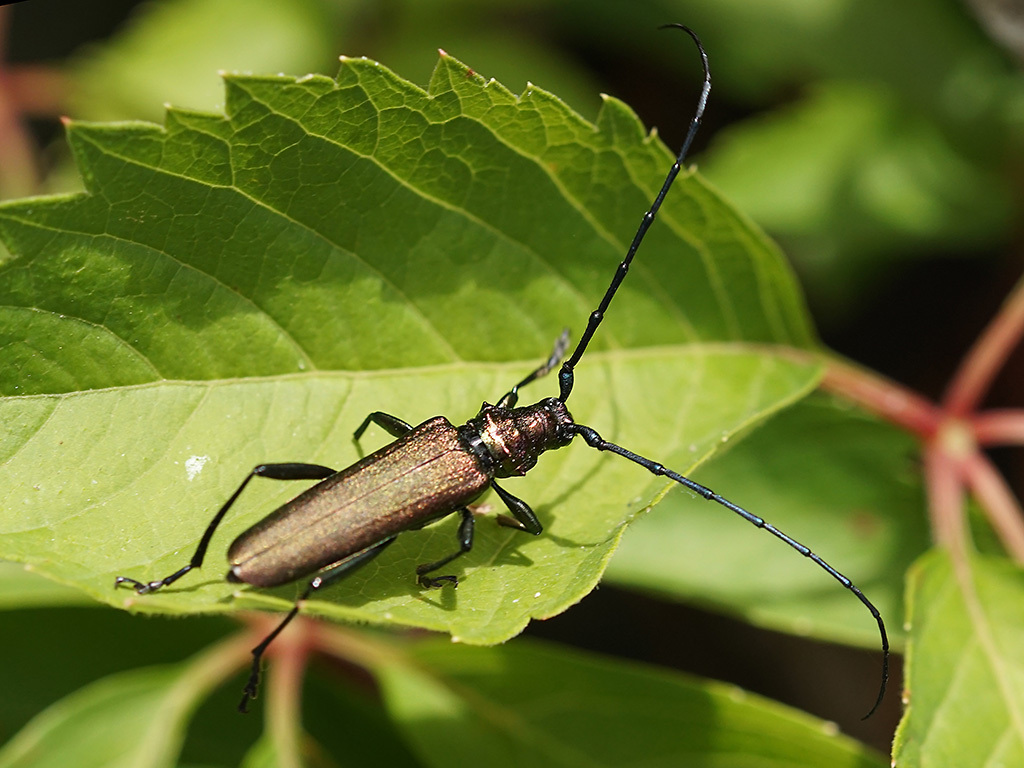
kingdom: Animalia
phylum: Arthropoda
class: Insecta
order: Coleoptera
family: Cerambycidae
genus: Aromia
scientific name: Aromia moschata
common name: Musk beetle
